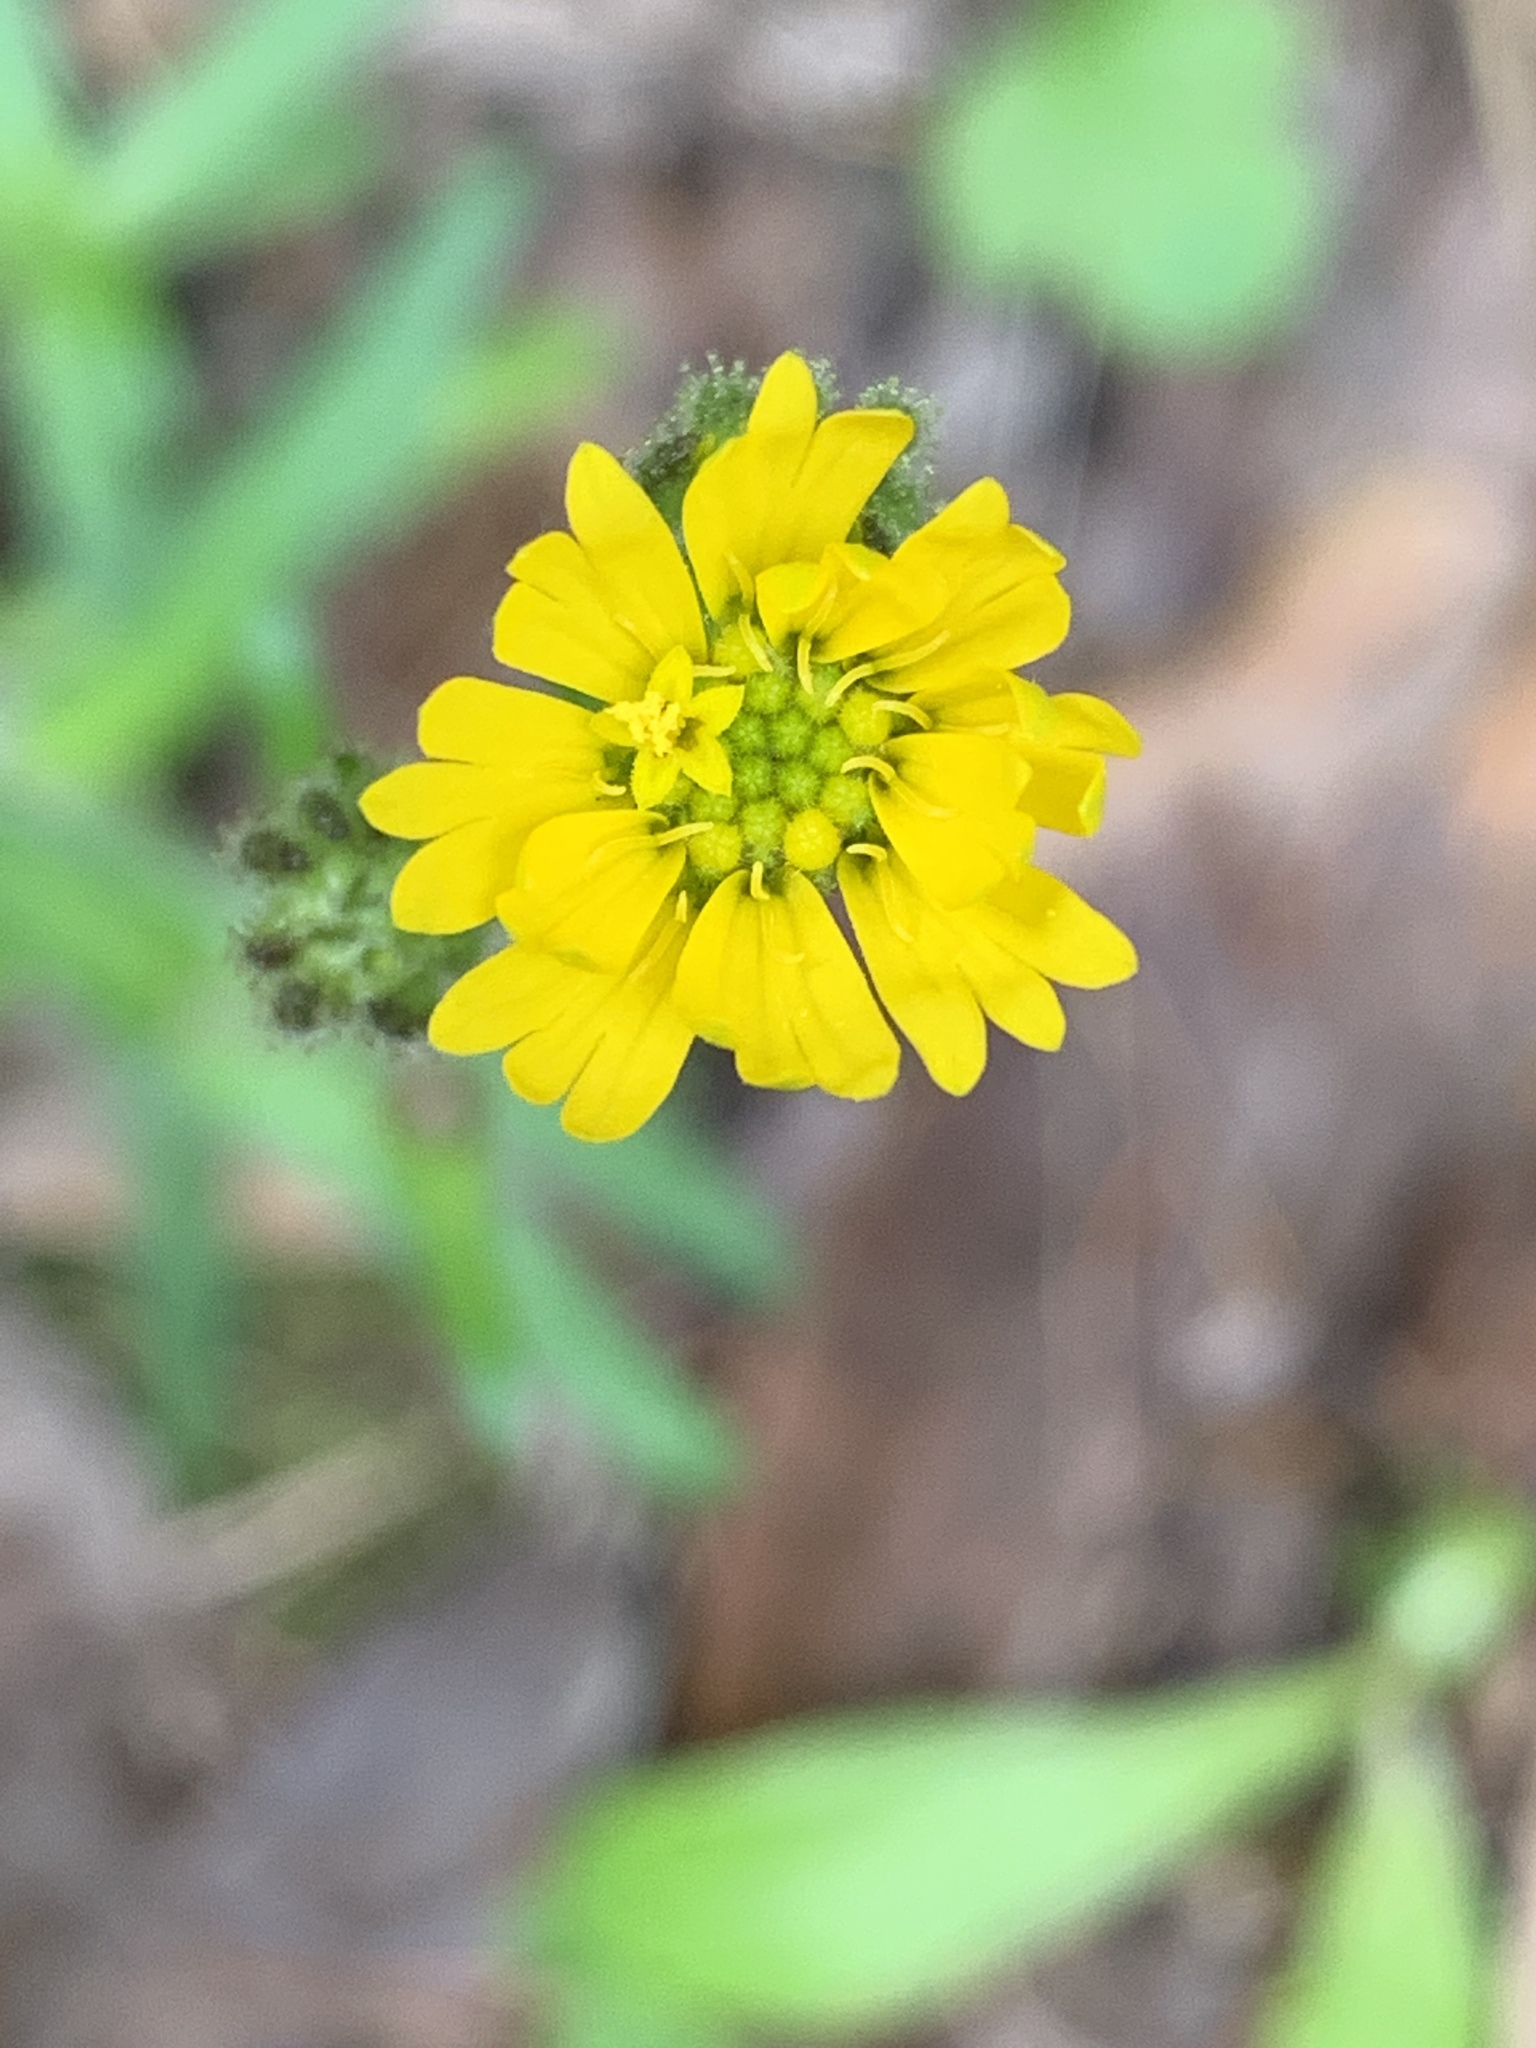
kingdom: Plantae
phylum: Tracheophyta
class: Magnoliopsida
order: Asterales
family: Asteraceae
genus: Anisocarpus
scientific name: Anisocarpus madioides
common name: Woodland madia
